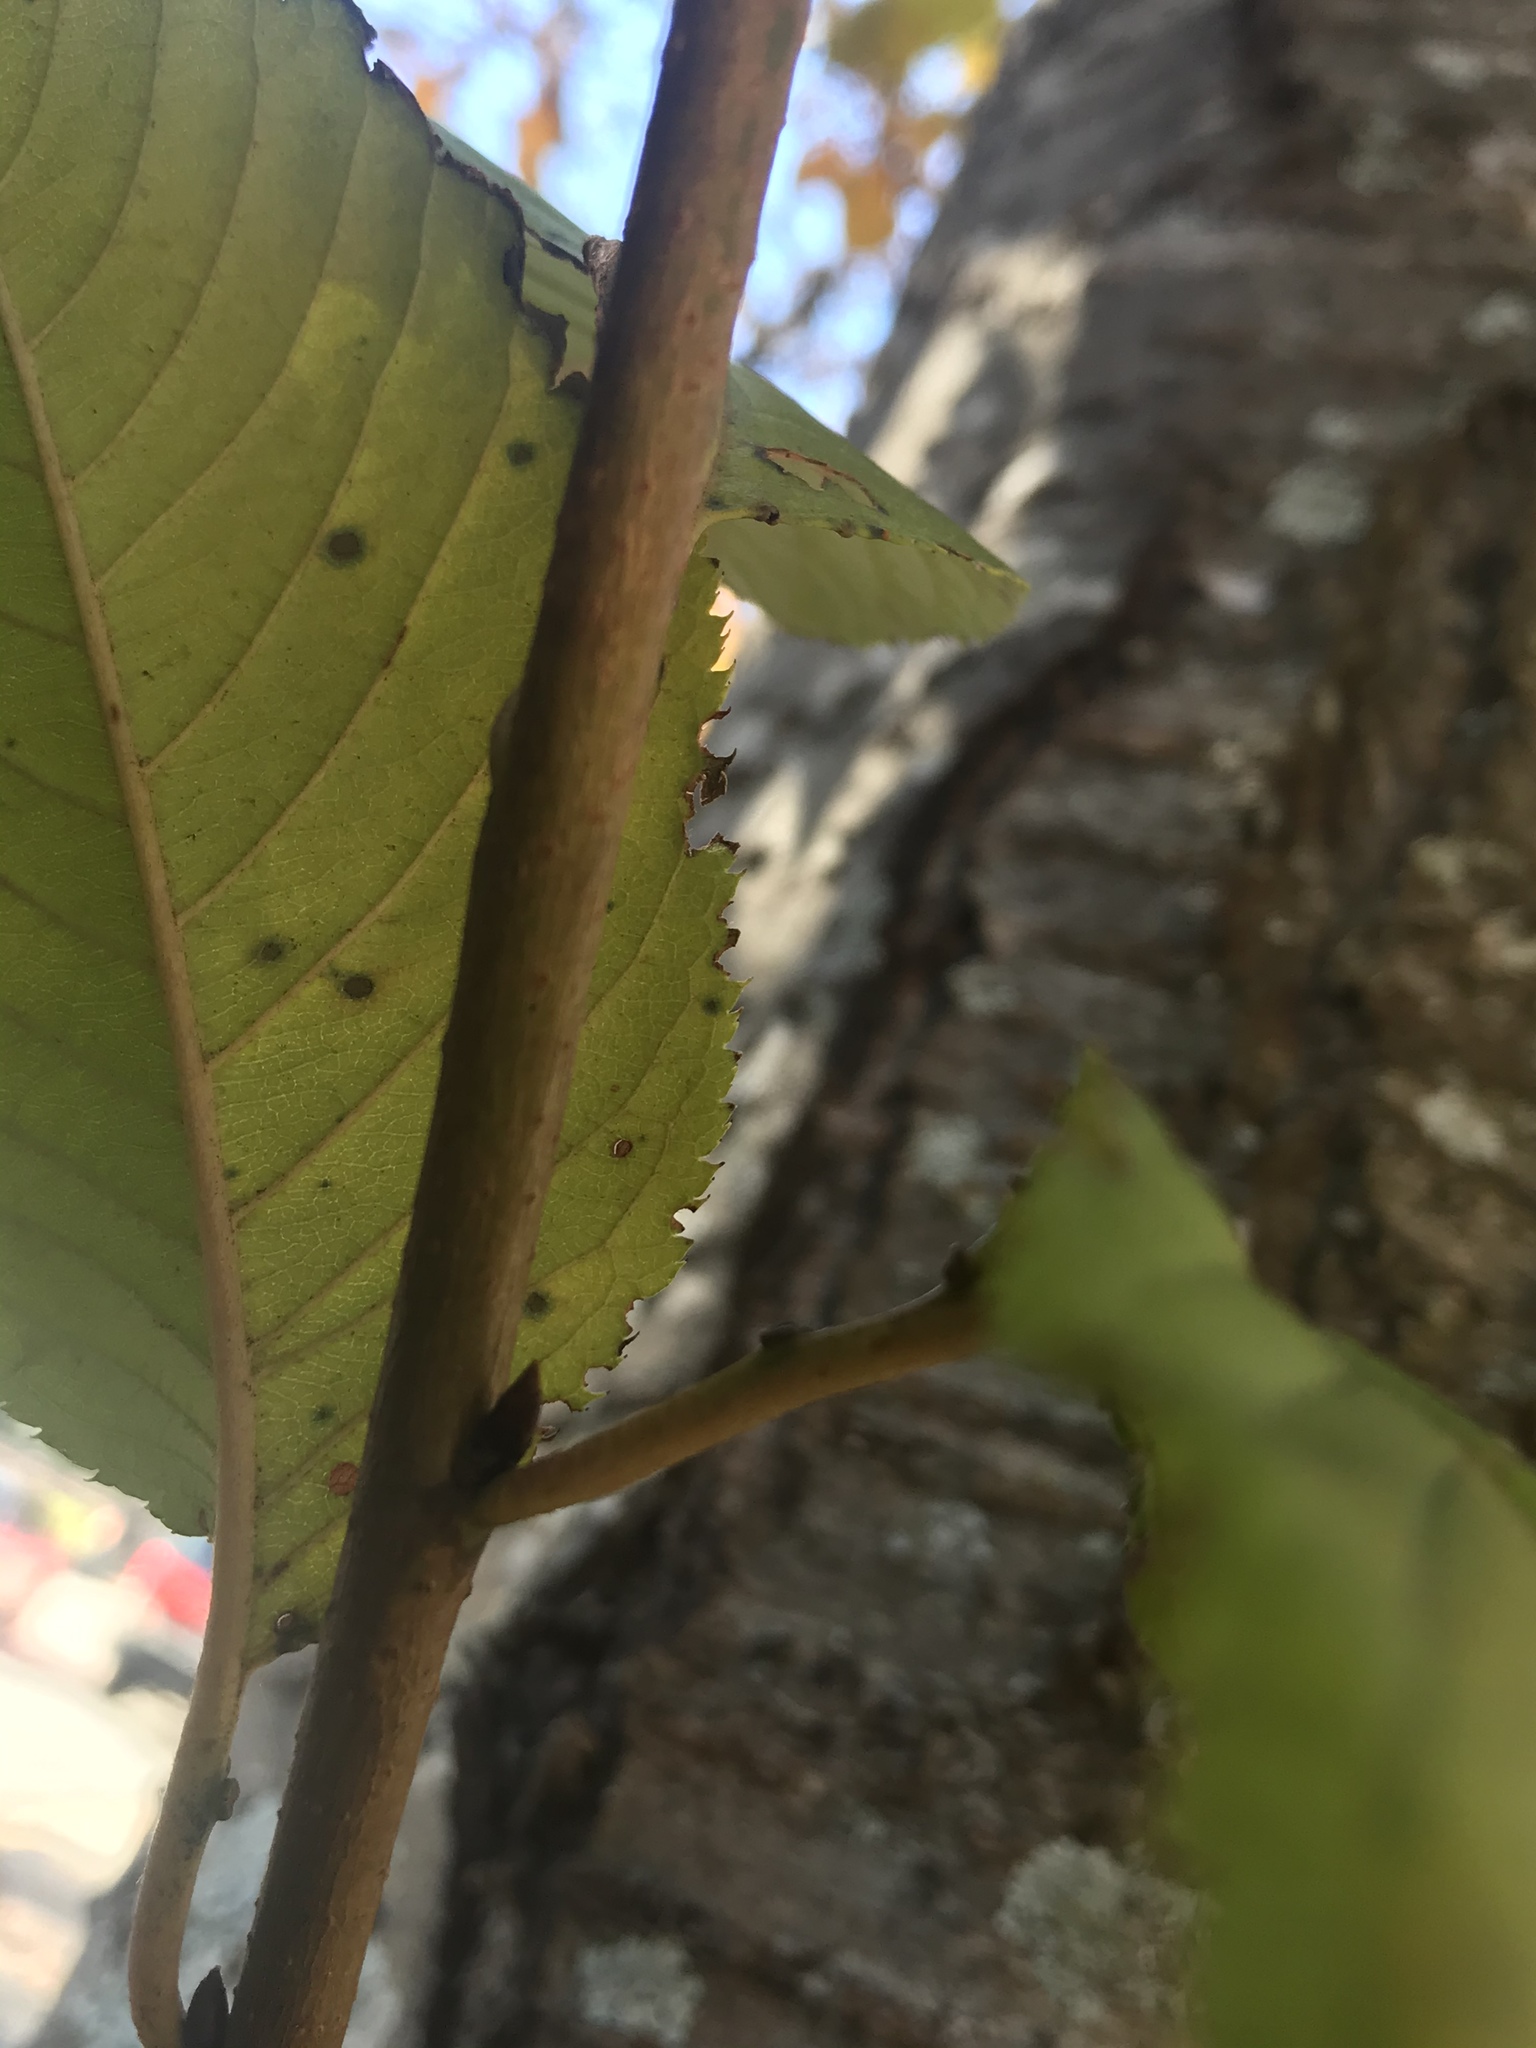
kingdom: Plantae
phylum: Tracheophyta
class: Magnoliopsida
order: Rosales
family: Rosaceae
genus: Prunus
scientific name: Prunus avium
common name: Sweet cherry
